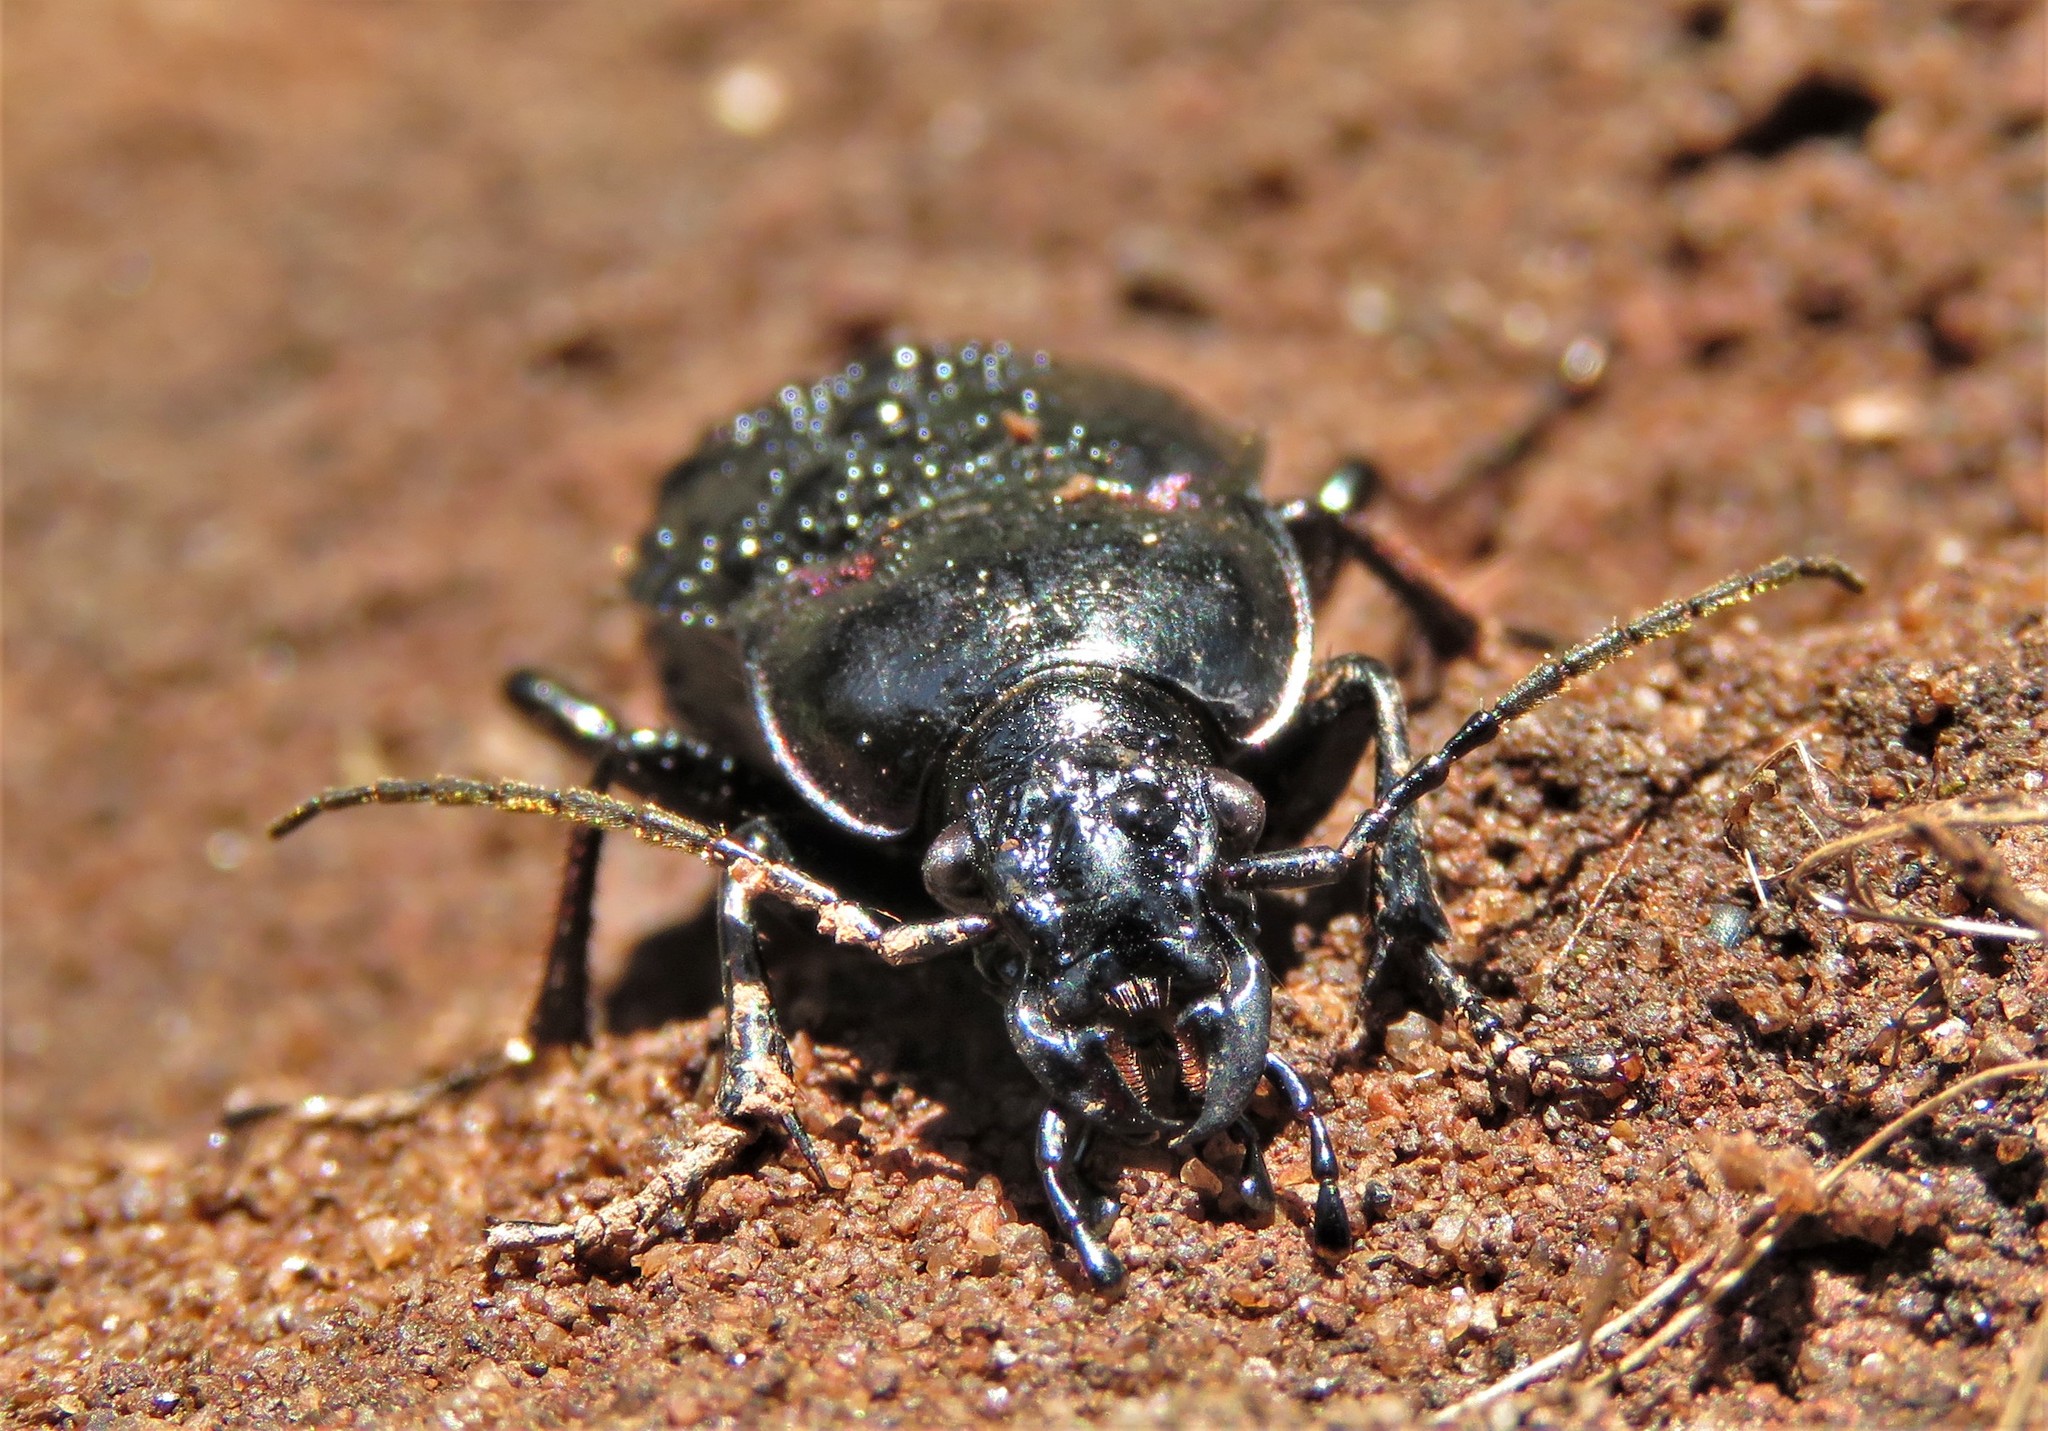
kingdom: Animalia
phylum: Arthropoda
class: Insecta
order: Coleoptera
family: Carabidae
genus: Carabus
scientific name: Carabus nemoralis
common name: European ground beetle
